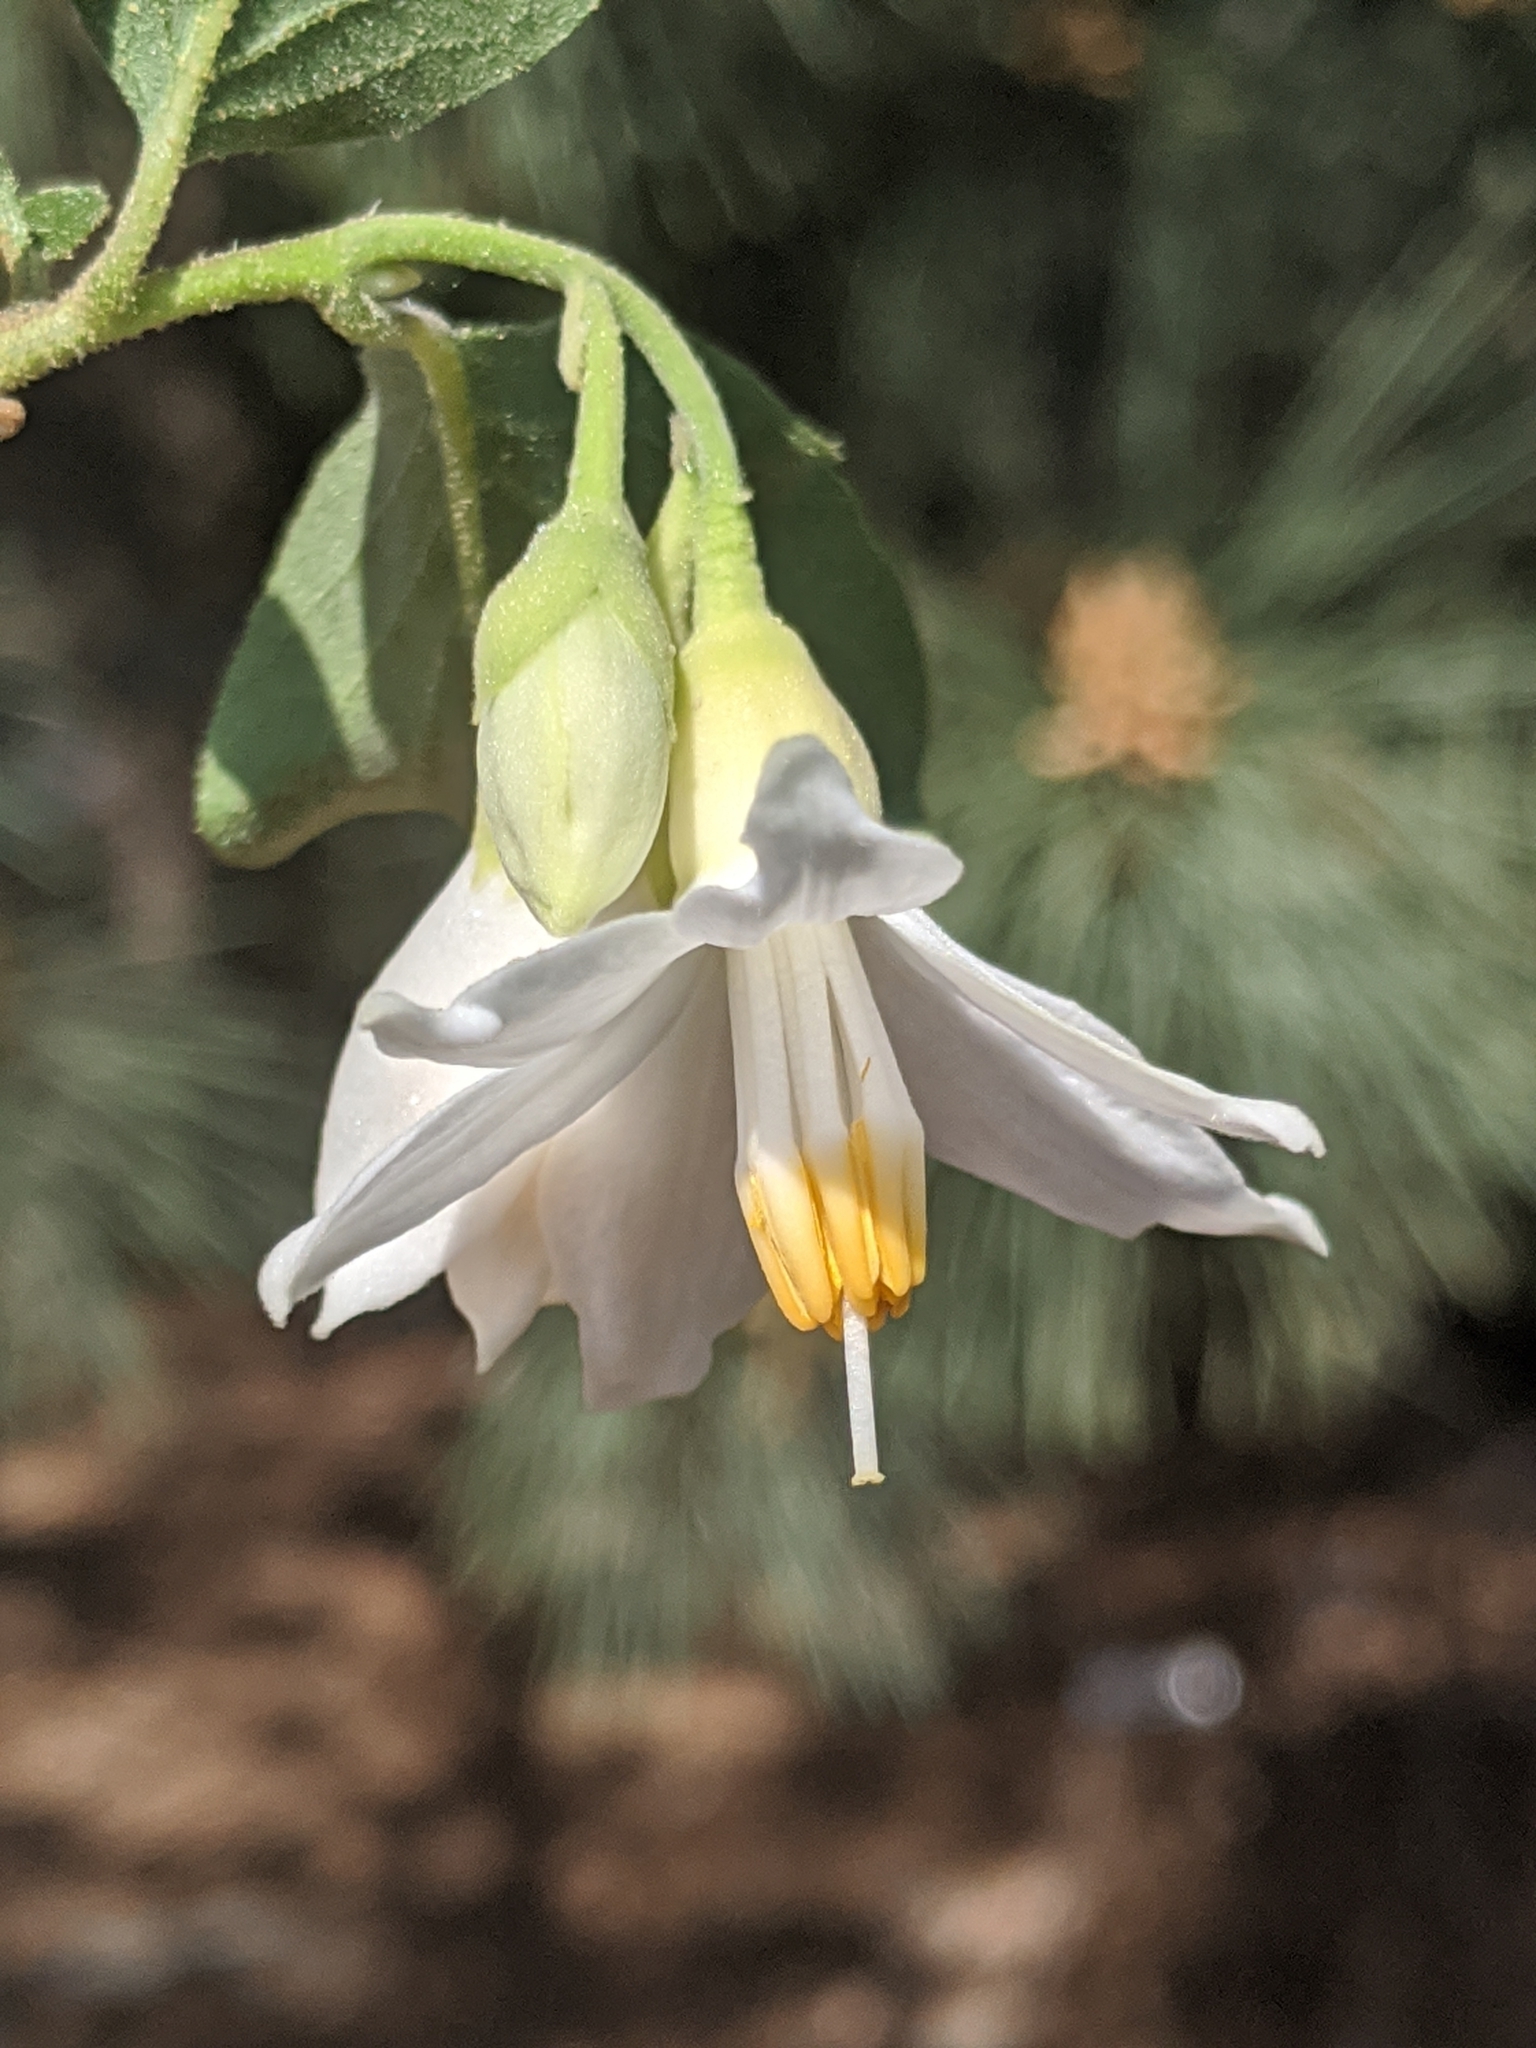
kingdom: Plantae
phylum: Tracheophyta
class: Magnoliopsida
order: Ericales
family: Styracaceae
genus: Styrax
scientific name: Styrax redivivus
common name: California styrax
